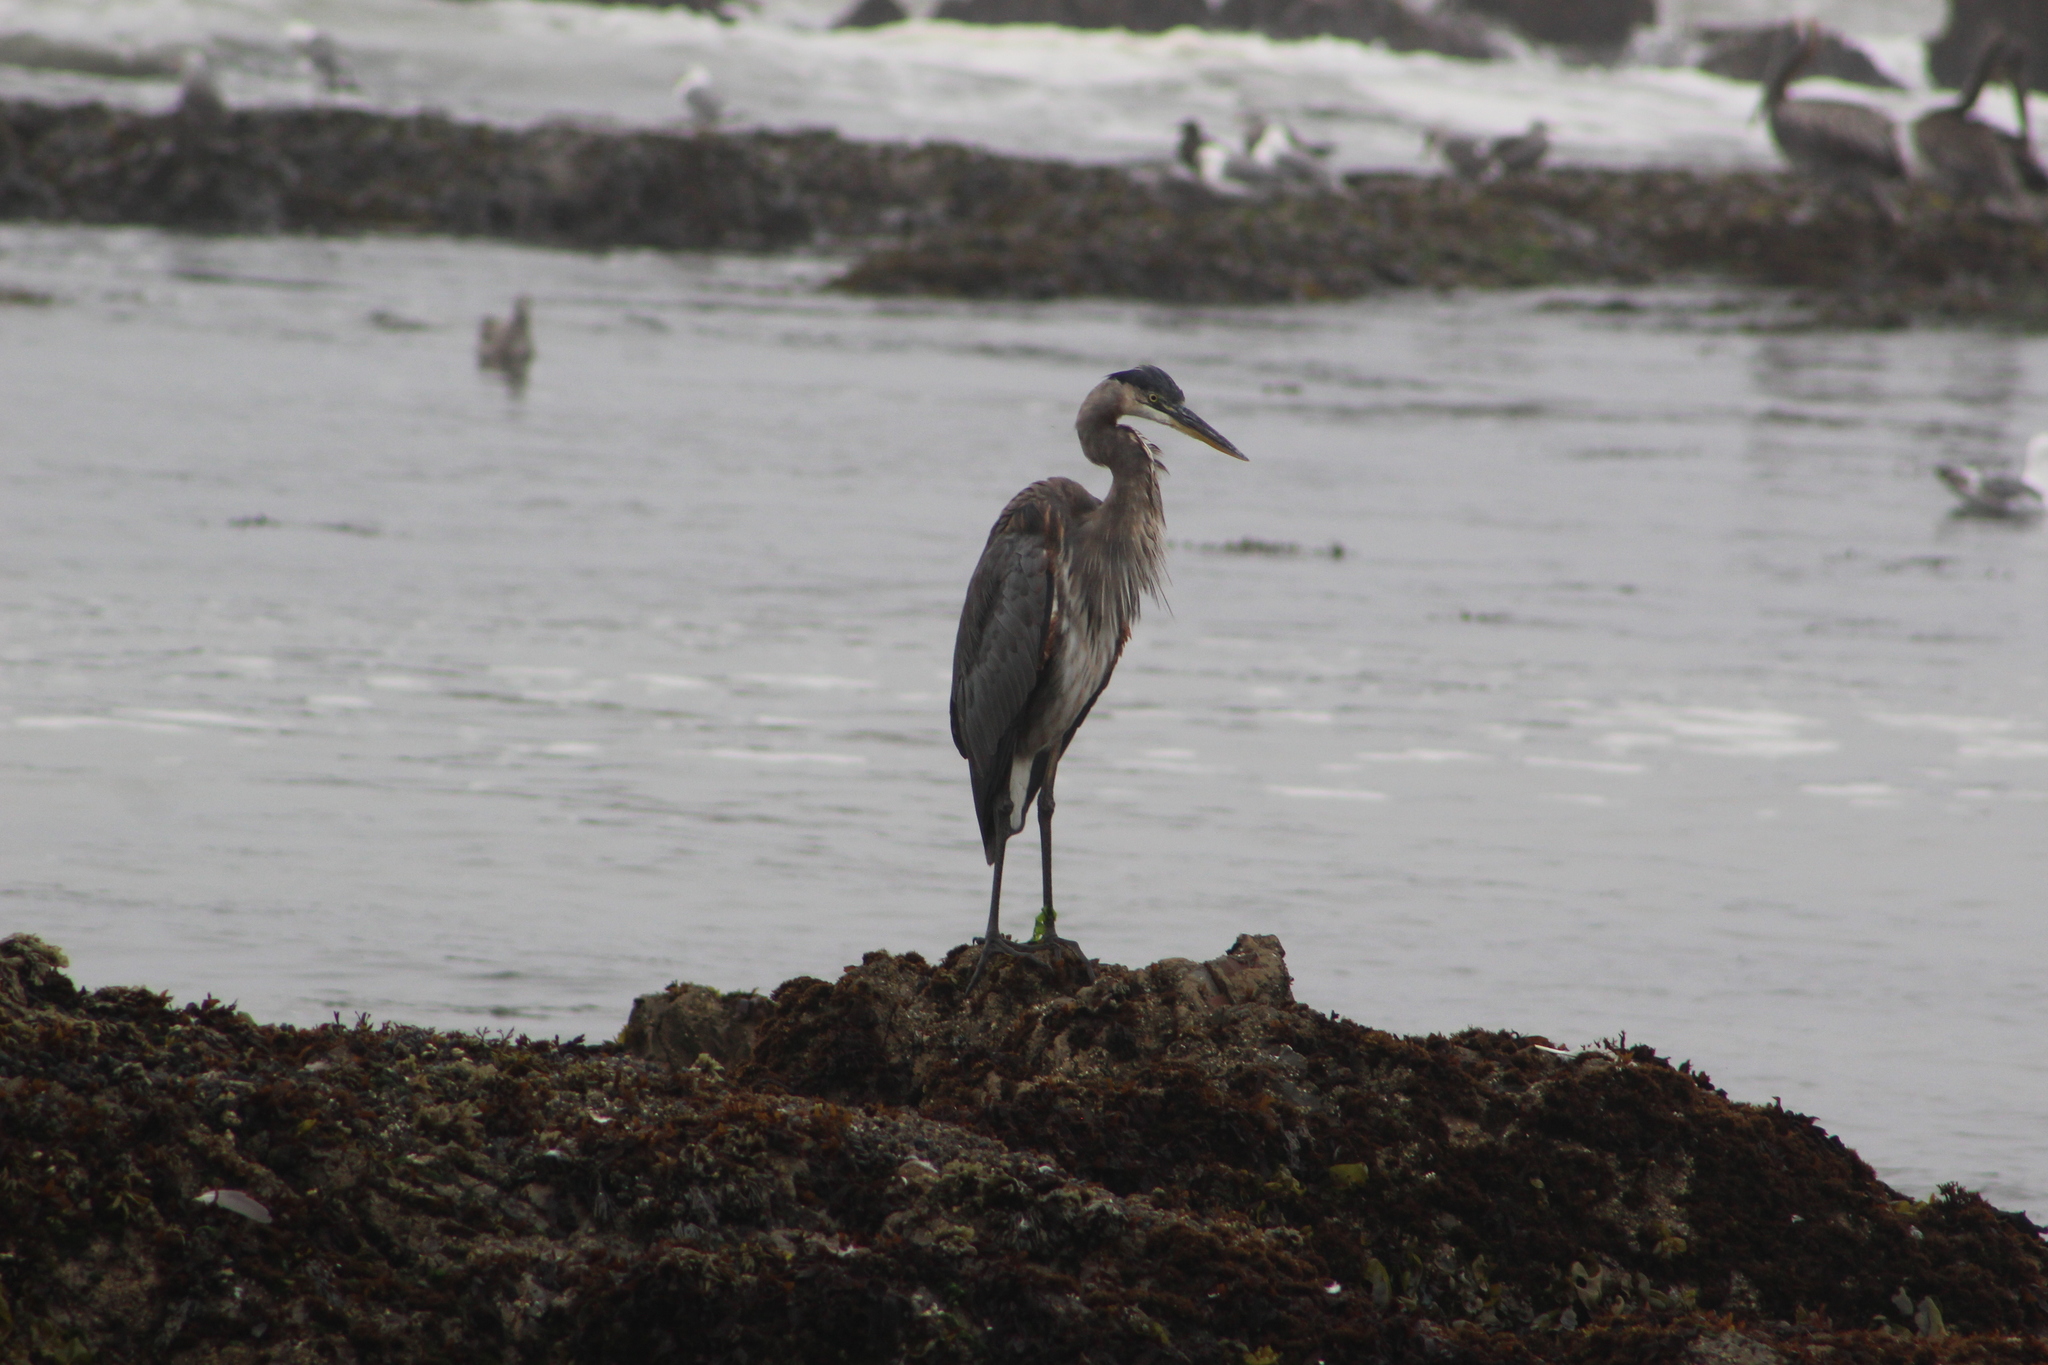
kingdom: Animalia
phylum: Chordata
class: Aves
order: Pelecaniformes
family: Ardeidae
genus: Ardea
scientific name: Ardea herodias
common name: Great blue heron
